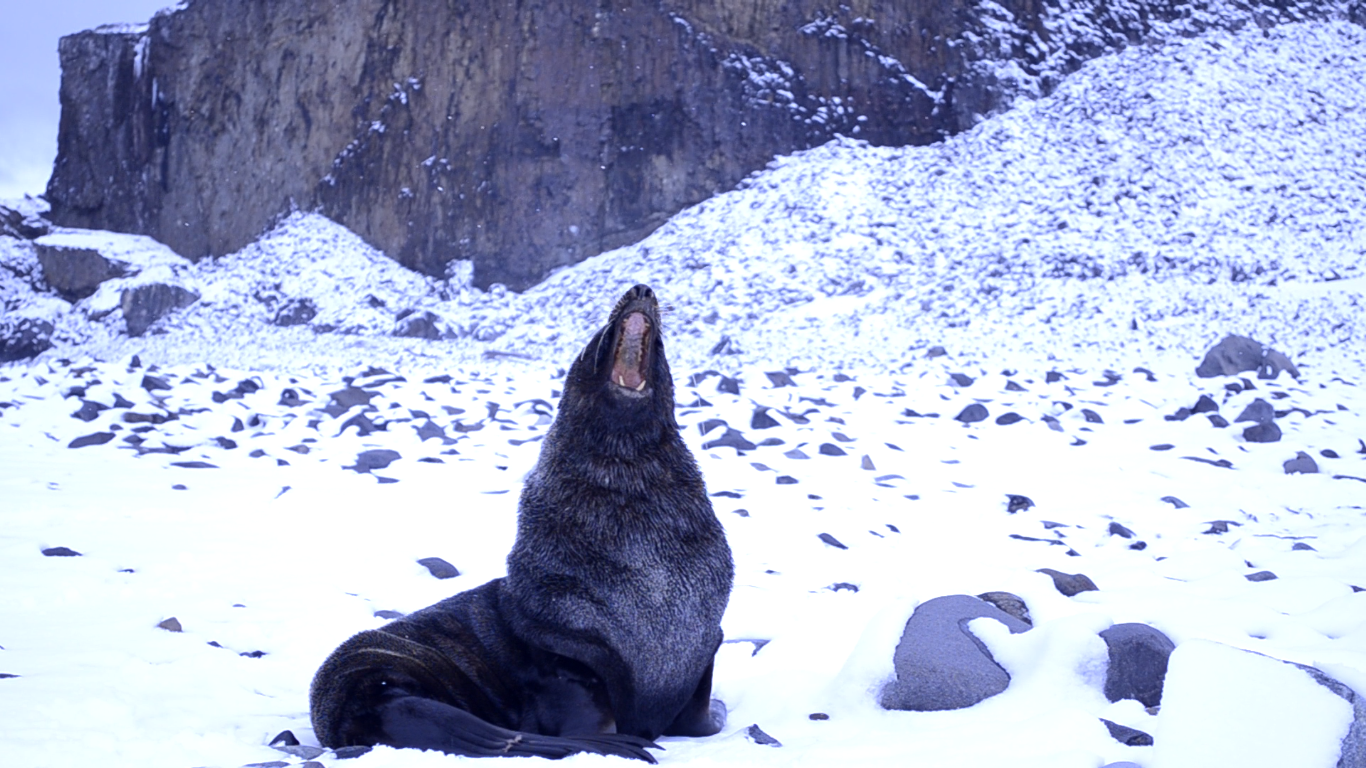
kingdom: Animalia
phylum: Chordata
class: Mammalia
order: Carnivora
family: Otariidae
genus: Arctocephalus
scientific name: Arctocephalus gazella
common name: Antarctic fur seal
